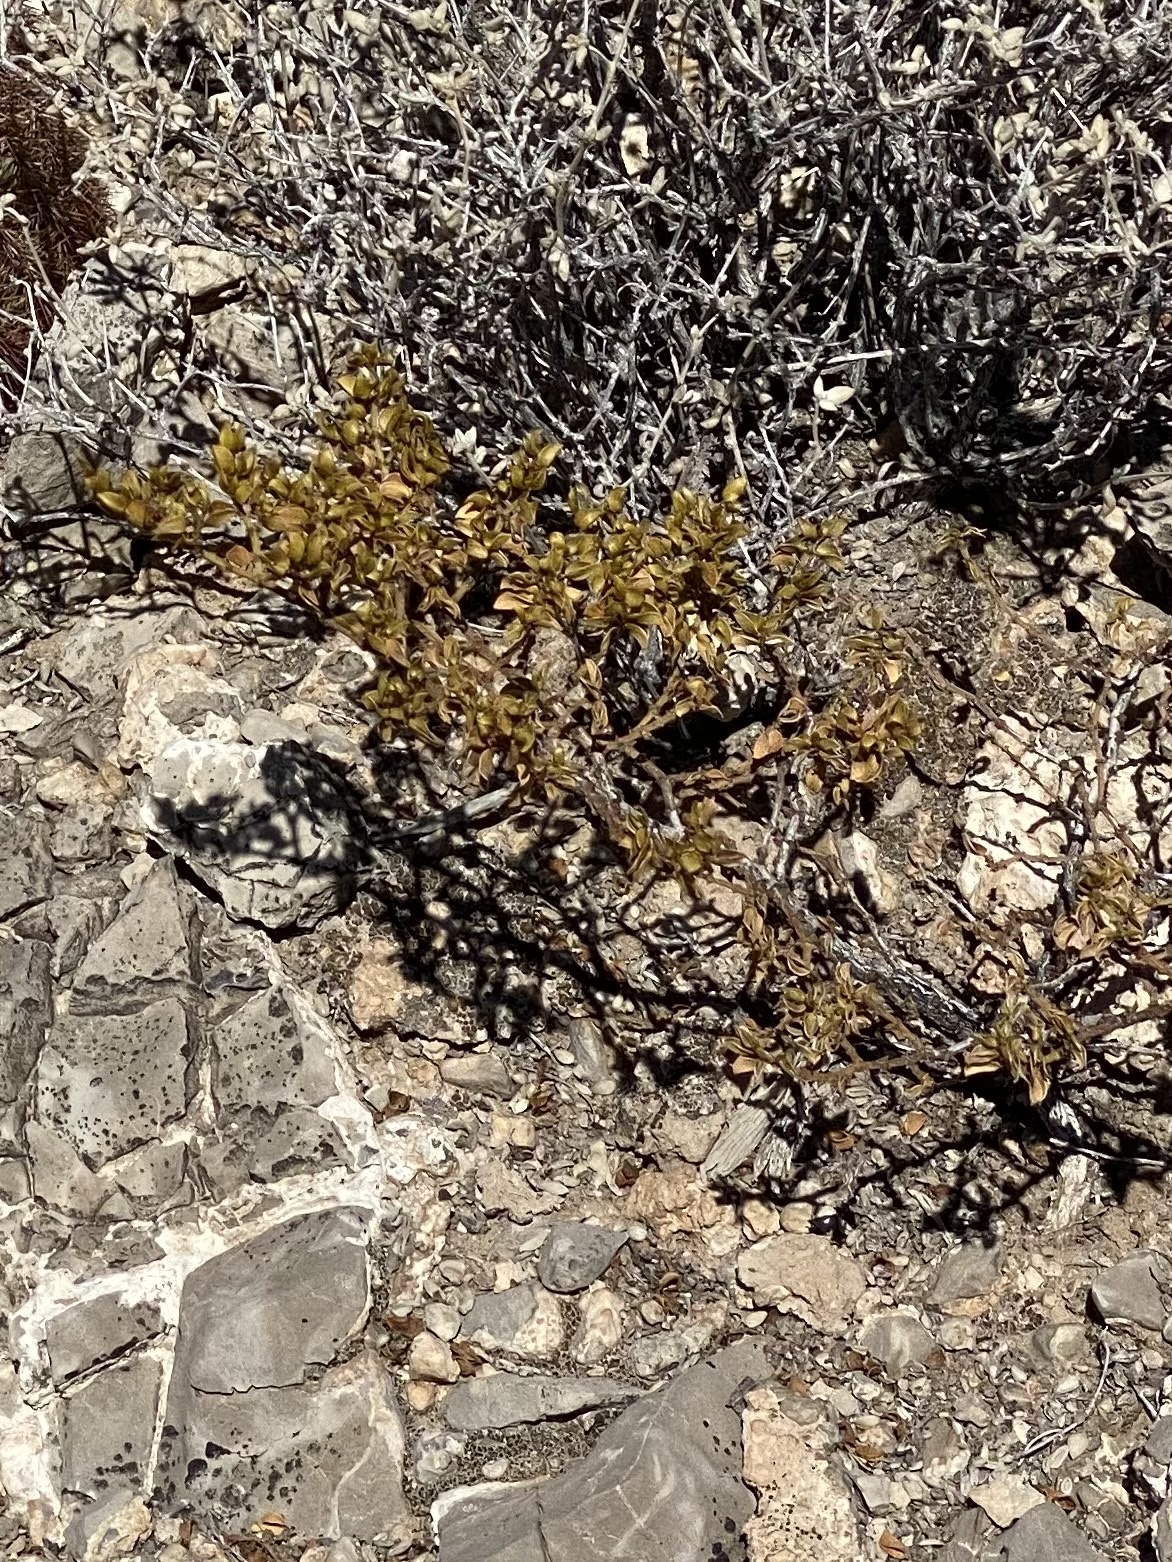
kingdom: Plantae
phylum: Tracheophyta
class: Magnoliopsida
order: Zygophyllales
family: Zygophyllaceae
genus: Larrea
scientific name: Larrea tridentata
